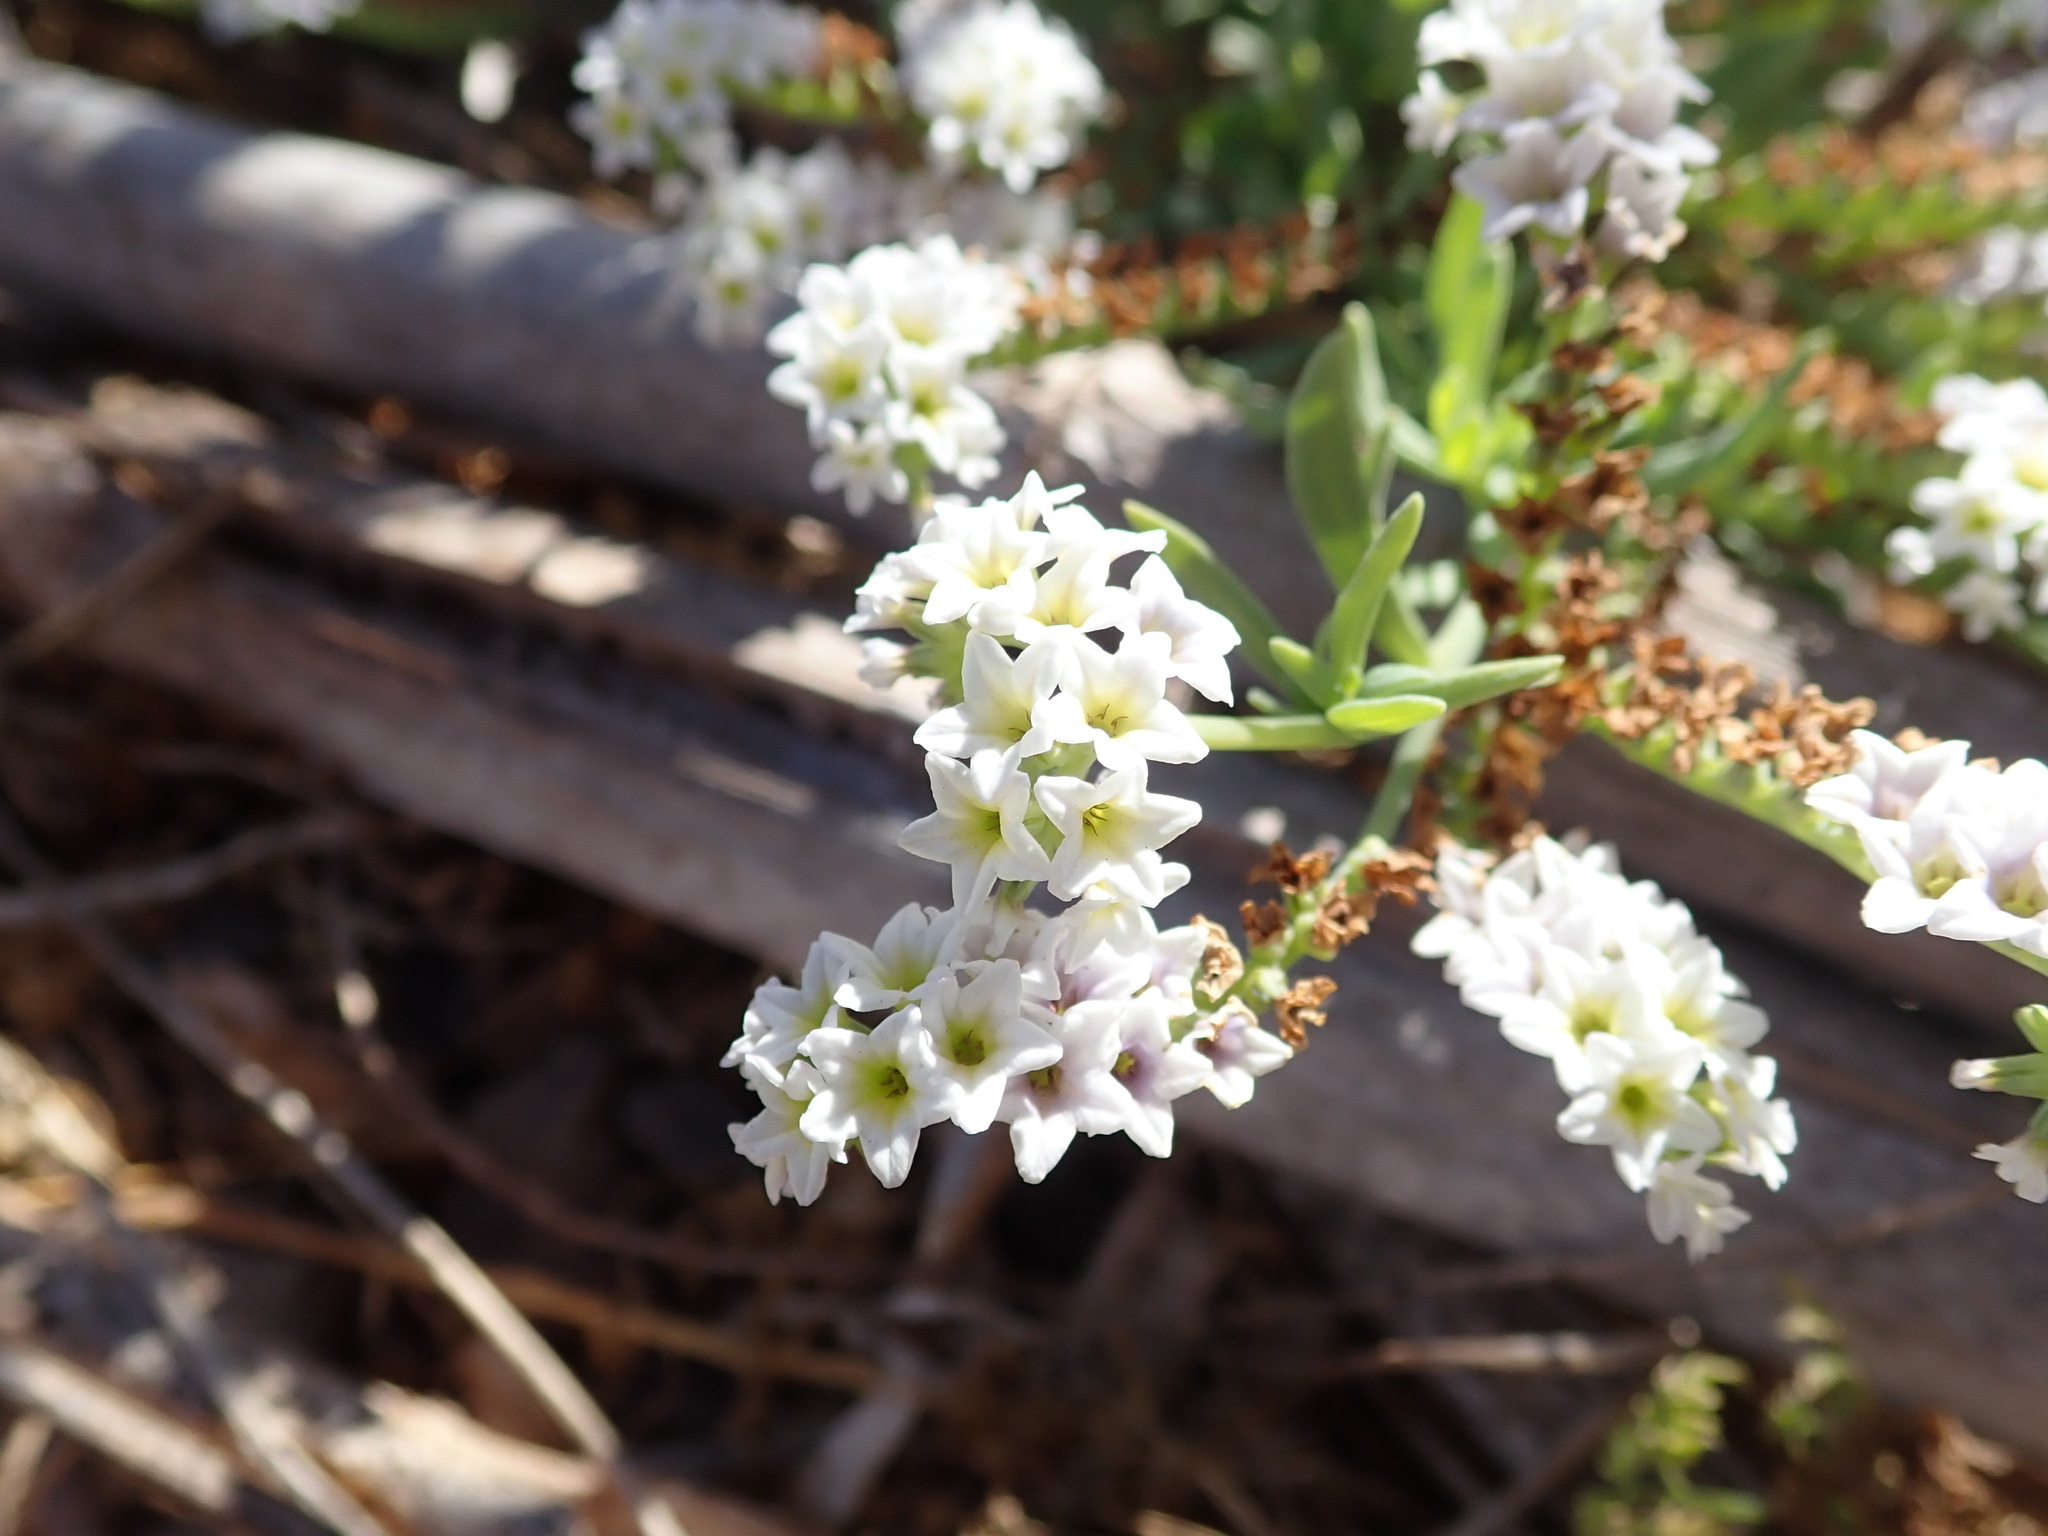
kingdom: Plantae
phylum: Tracheophyta
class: Magnoliopsida
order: Boraginales
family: Heliotropiaceae
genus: Heliotropium
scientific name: Heliotropium curassavicum
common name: Seaside heliotrope
